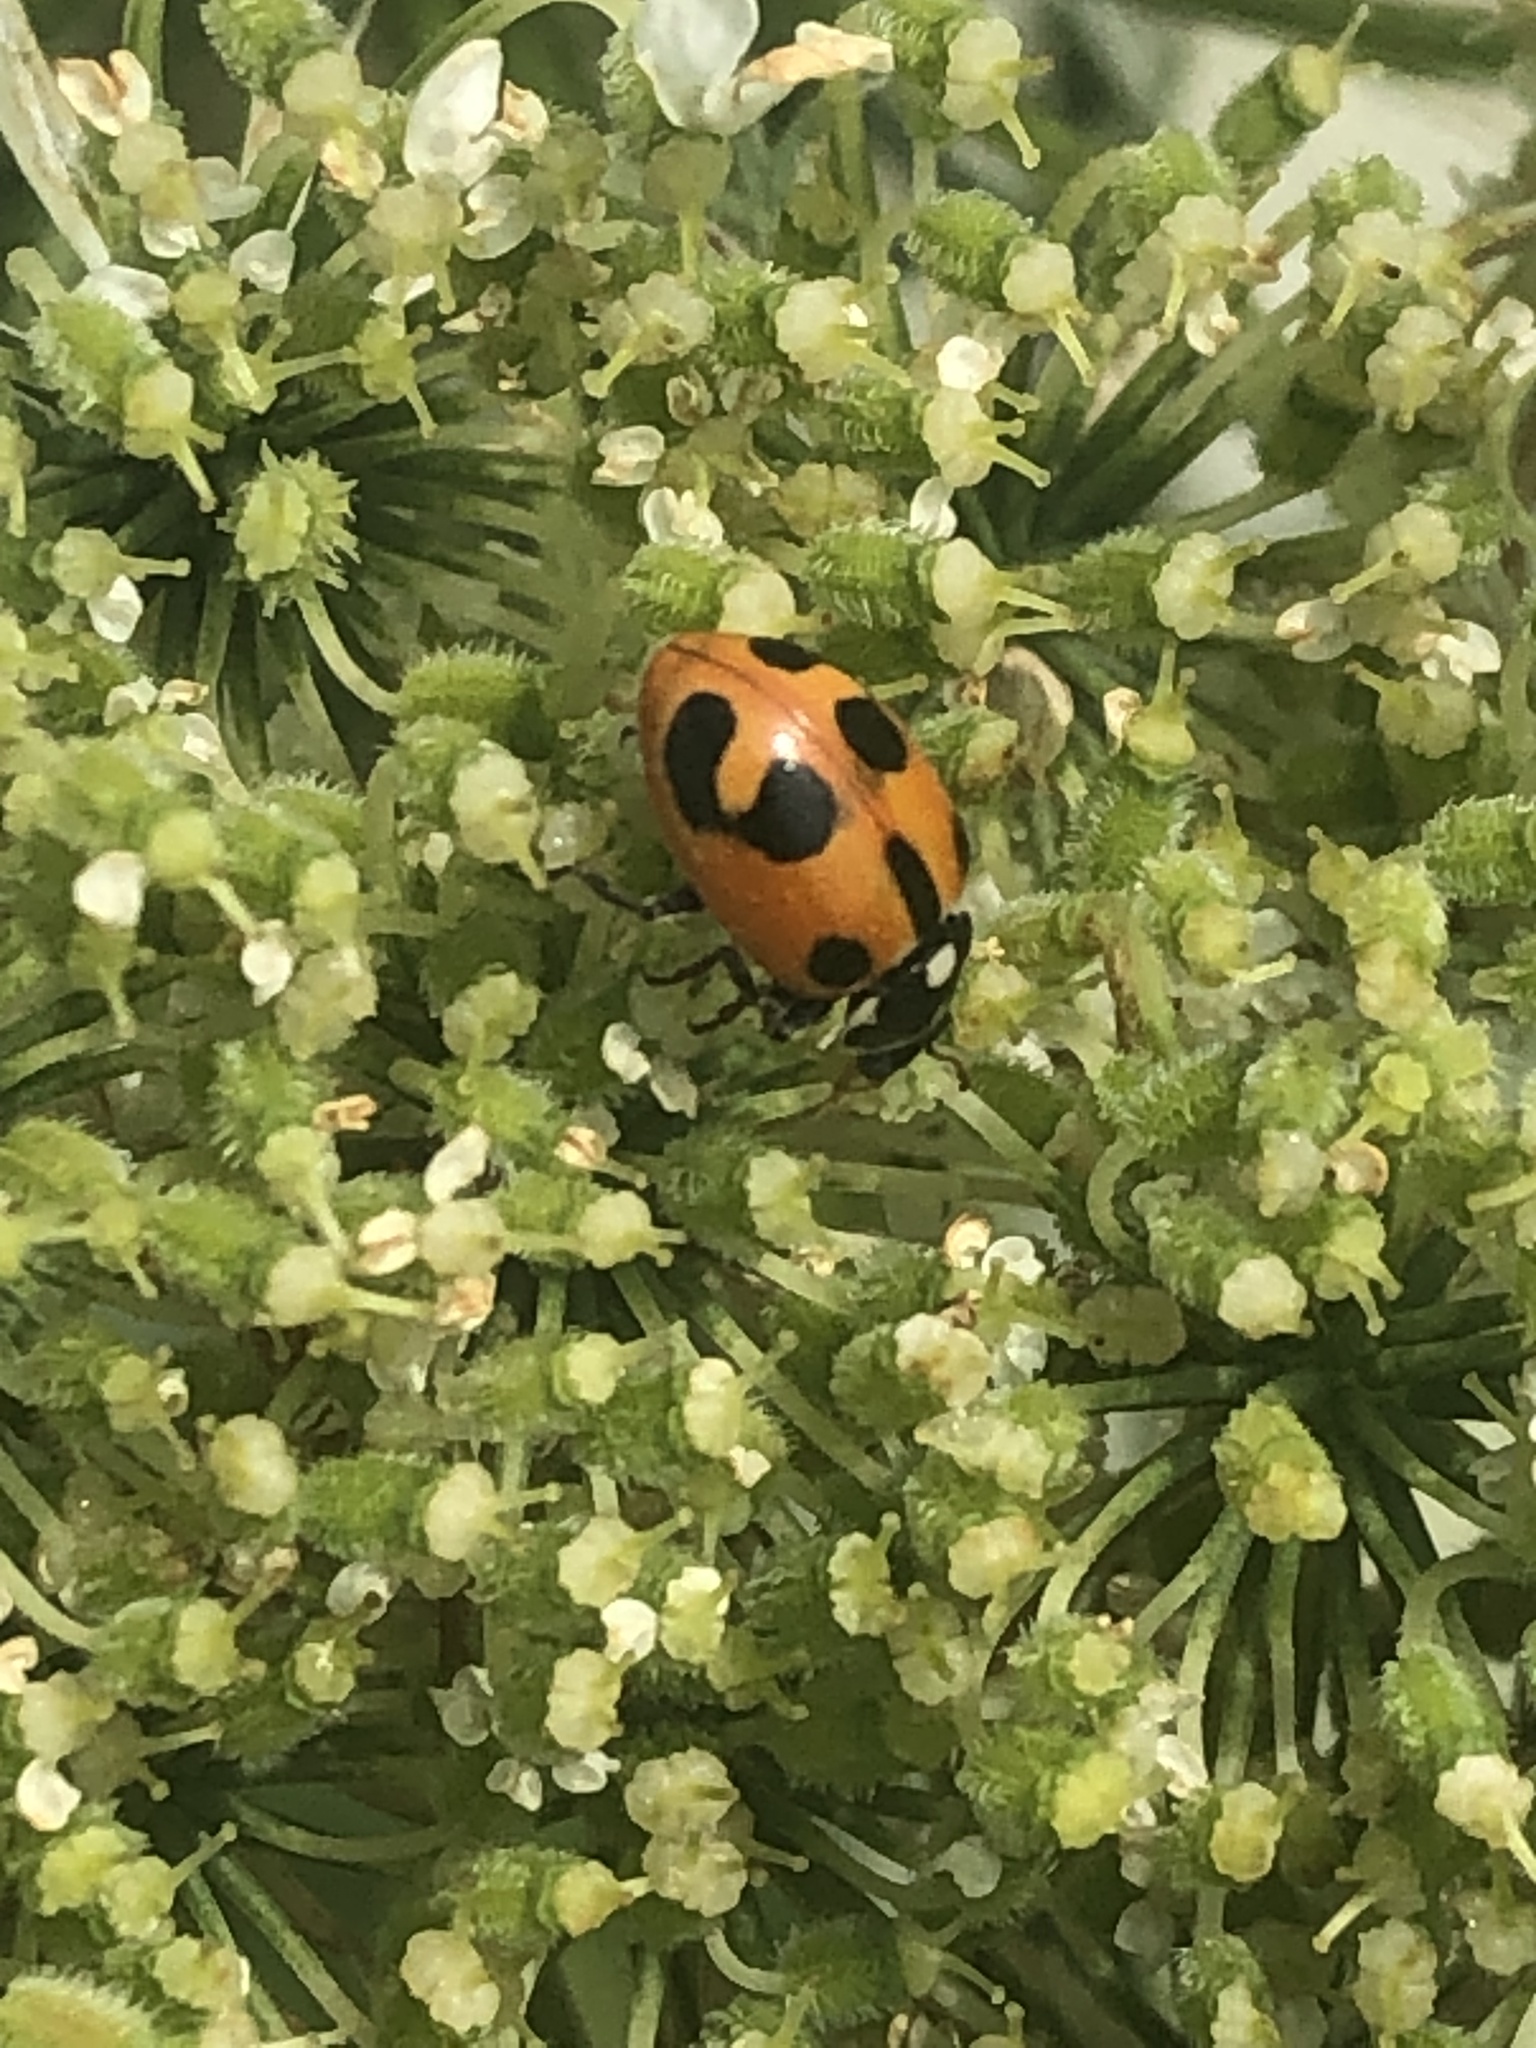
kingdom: Animalia
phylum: Arthropoda
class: Insecta
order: Coleoptera
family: Coccinellidae
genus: Hippodamia
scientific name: Hippodamia parenthesis
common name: Parenthesis lady beetle
